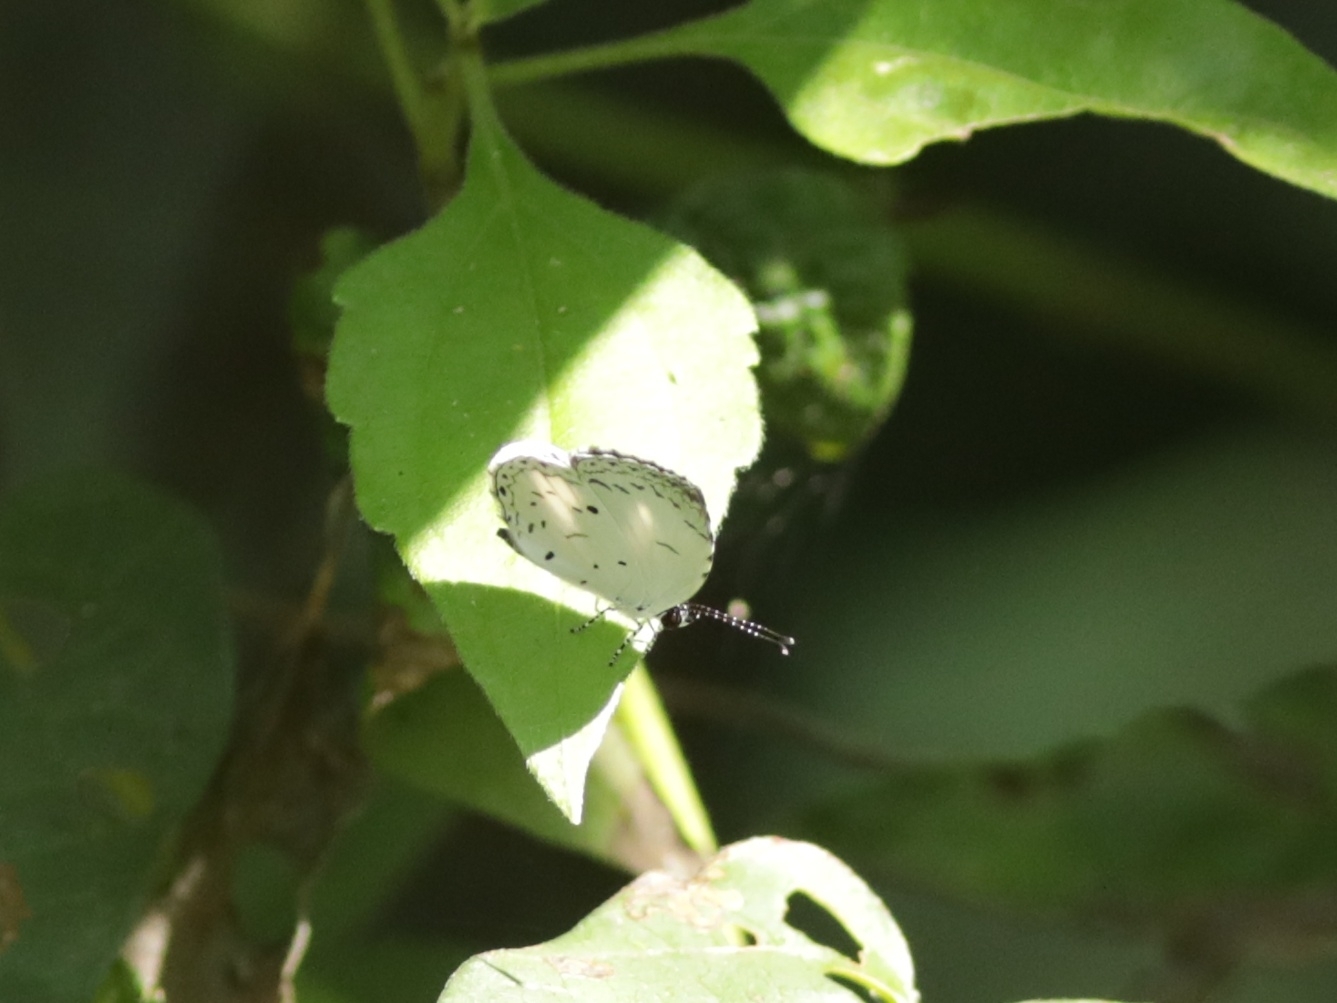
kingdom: Animalia
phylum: Arthropoda
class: Insecta
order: Lepidoptera
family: Lycaenidae
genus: Neopithecops
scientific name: Neopithecops zalmora
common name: Quaker
